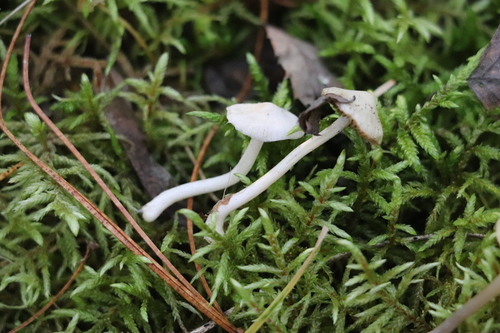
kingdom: Fungi
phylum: Basidiomycota
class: Agaricomycetes
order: Agaricales
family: Inocybaceae
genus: Inocybe
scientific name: Inocybe geophylla
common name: White fibrecap
